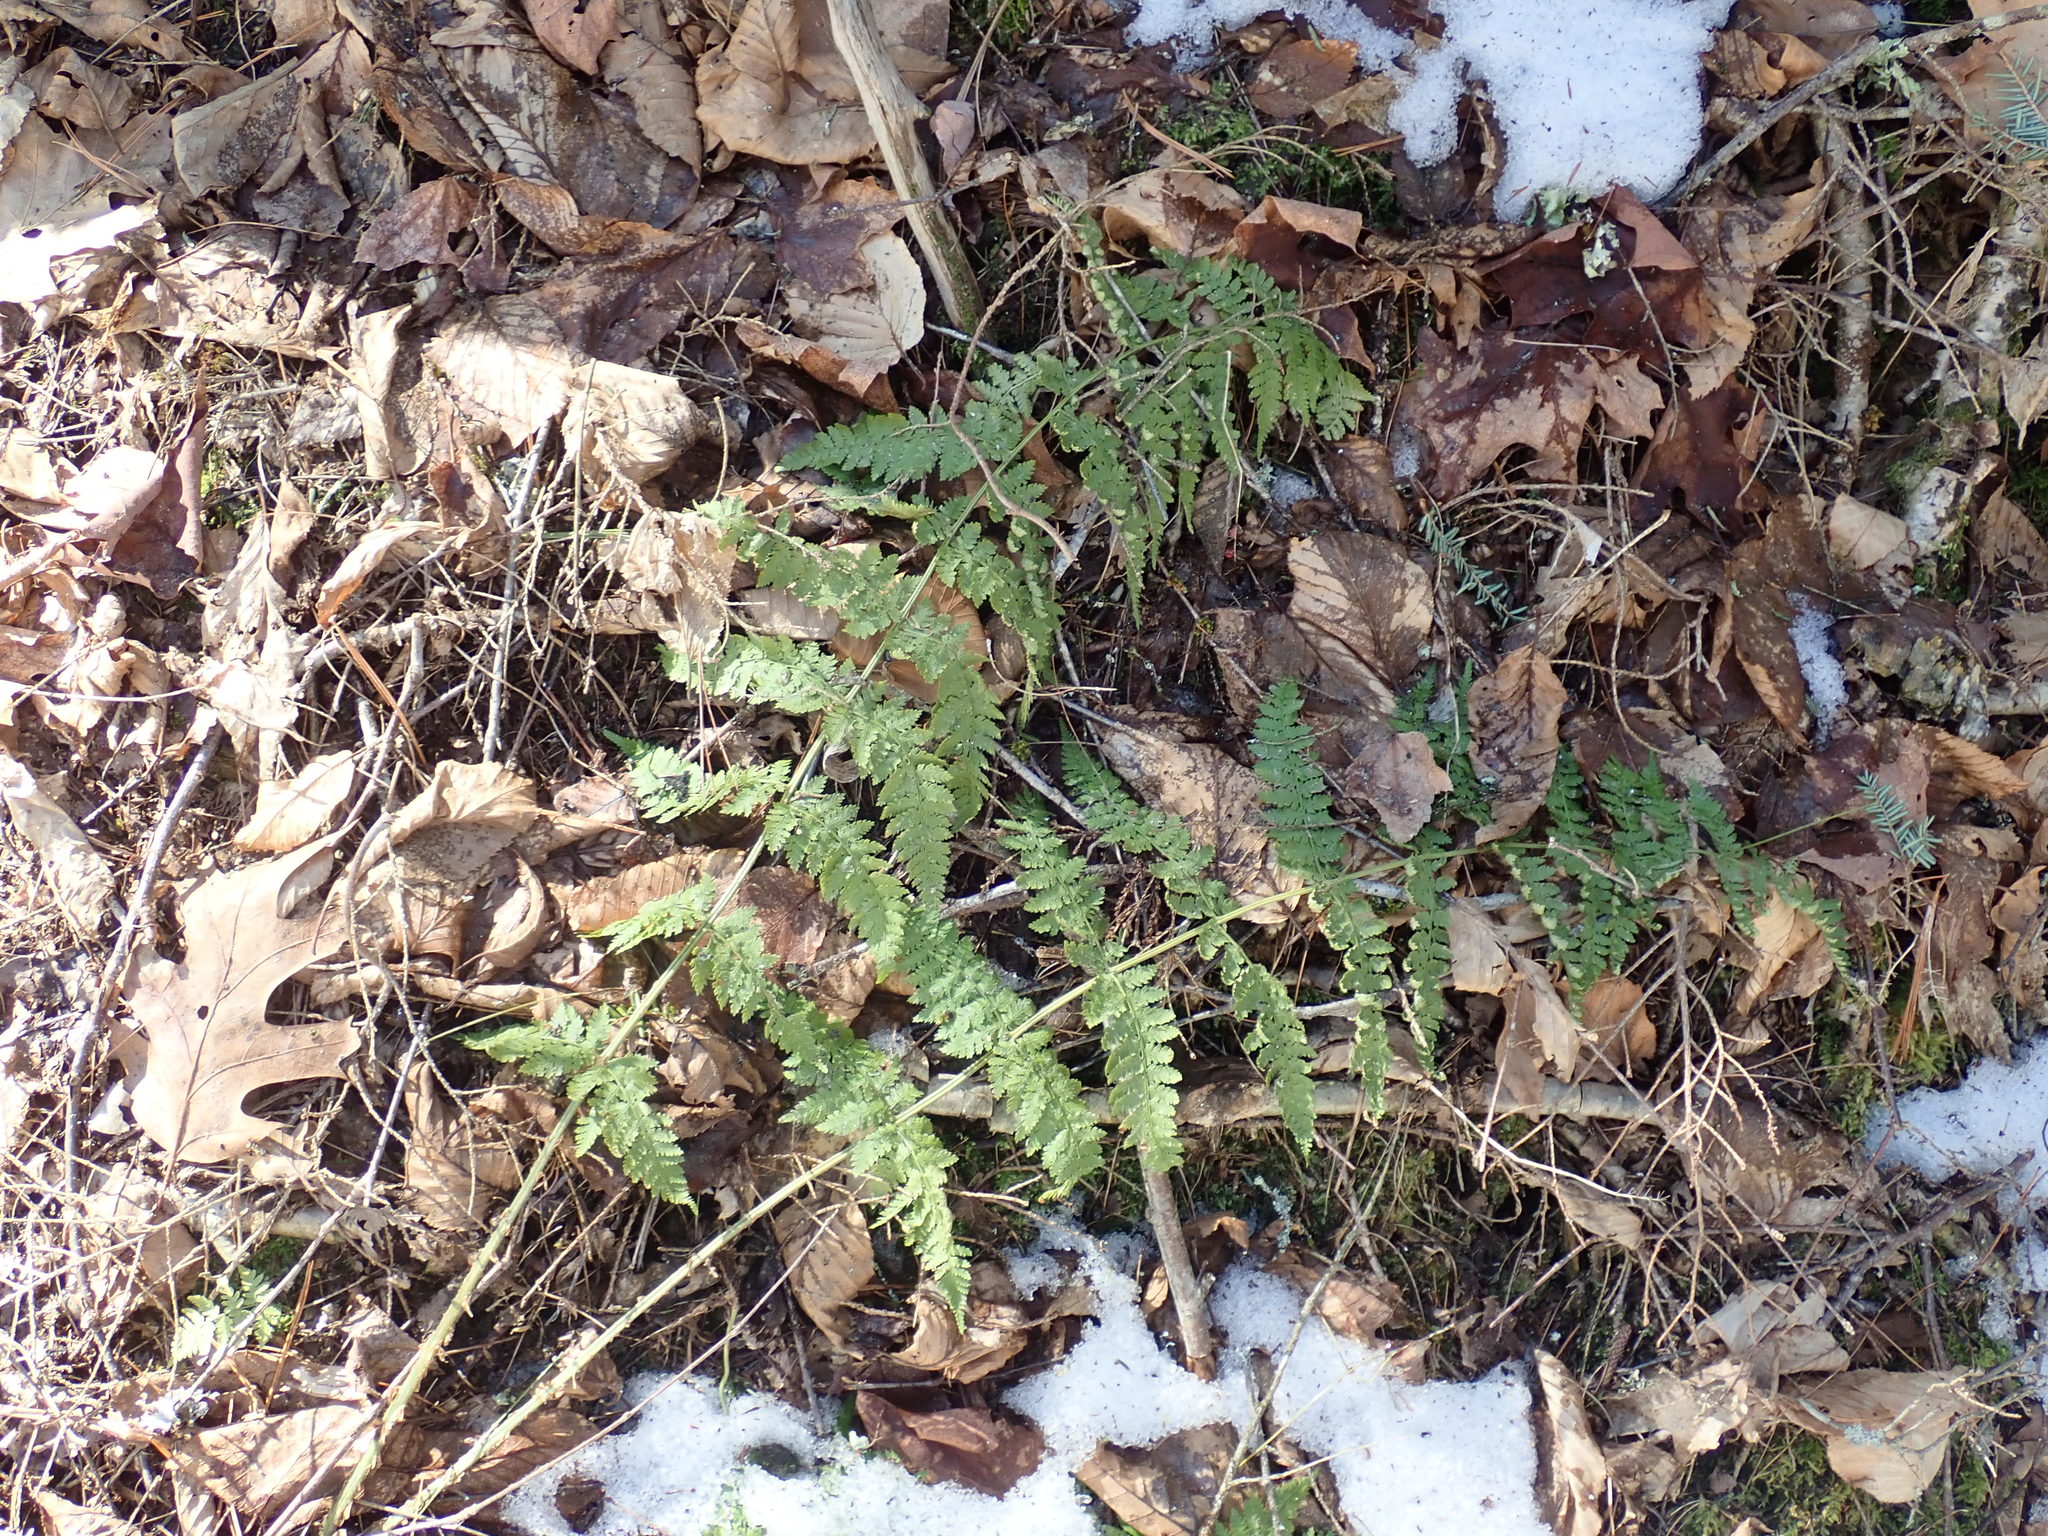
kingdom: Plantae
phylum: Tracheophyta
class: Polypodiopsida
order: Polypodiales
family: Dryopteridaceae
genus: Dryopteris
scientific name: Dryopteris intermedia
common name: Evergreen wood fern
